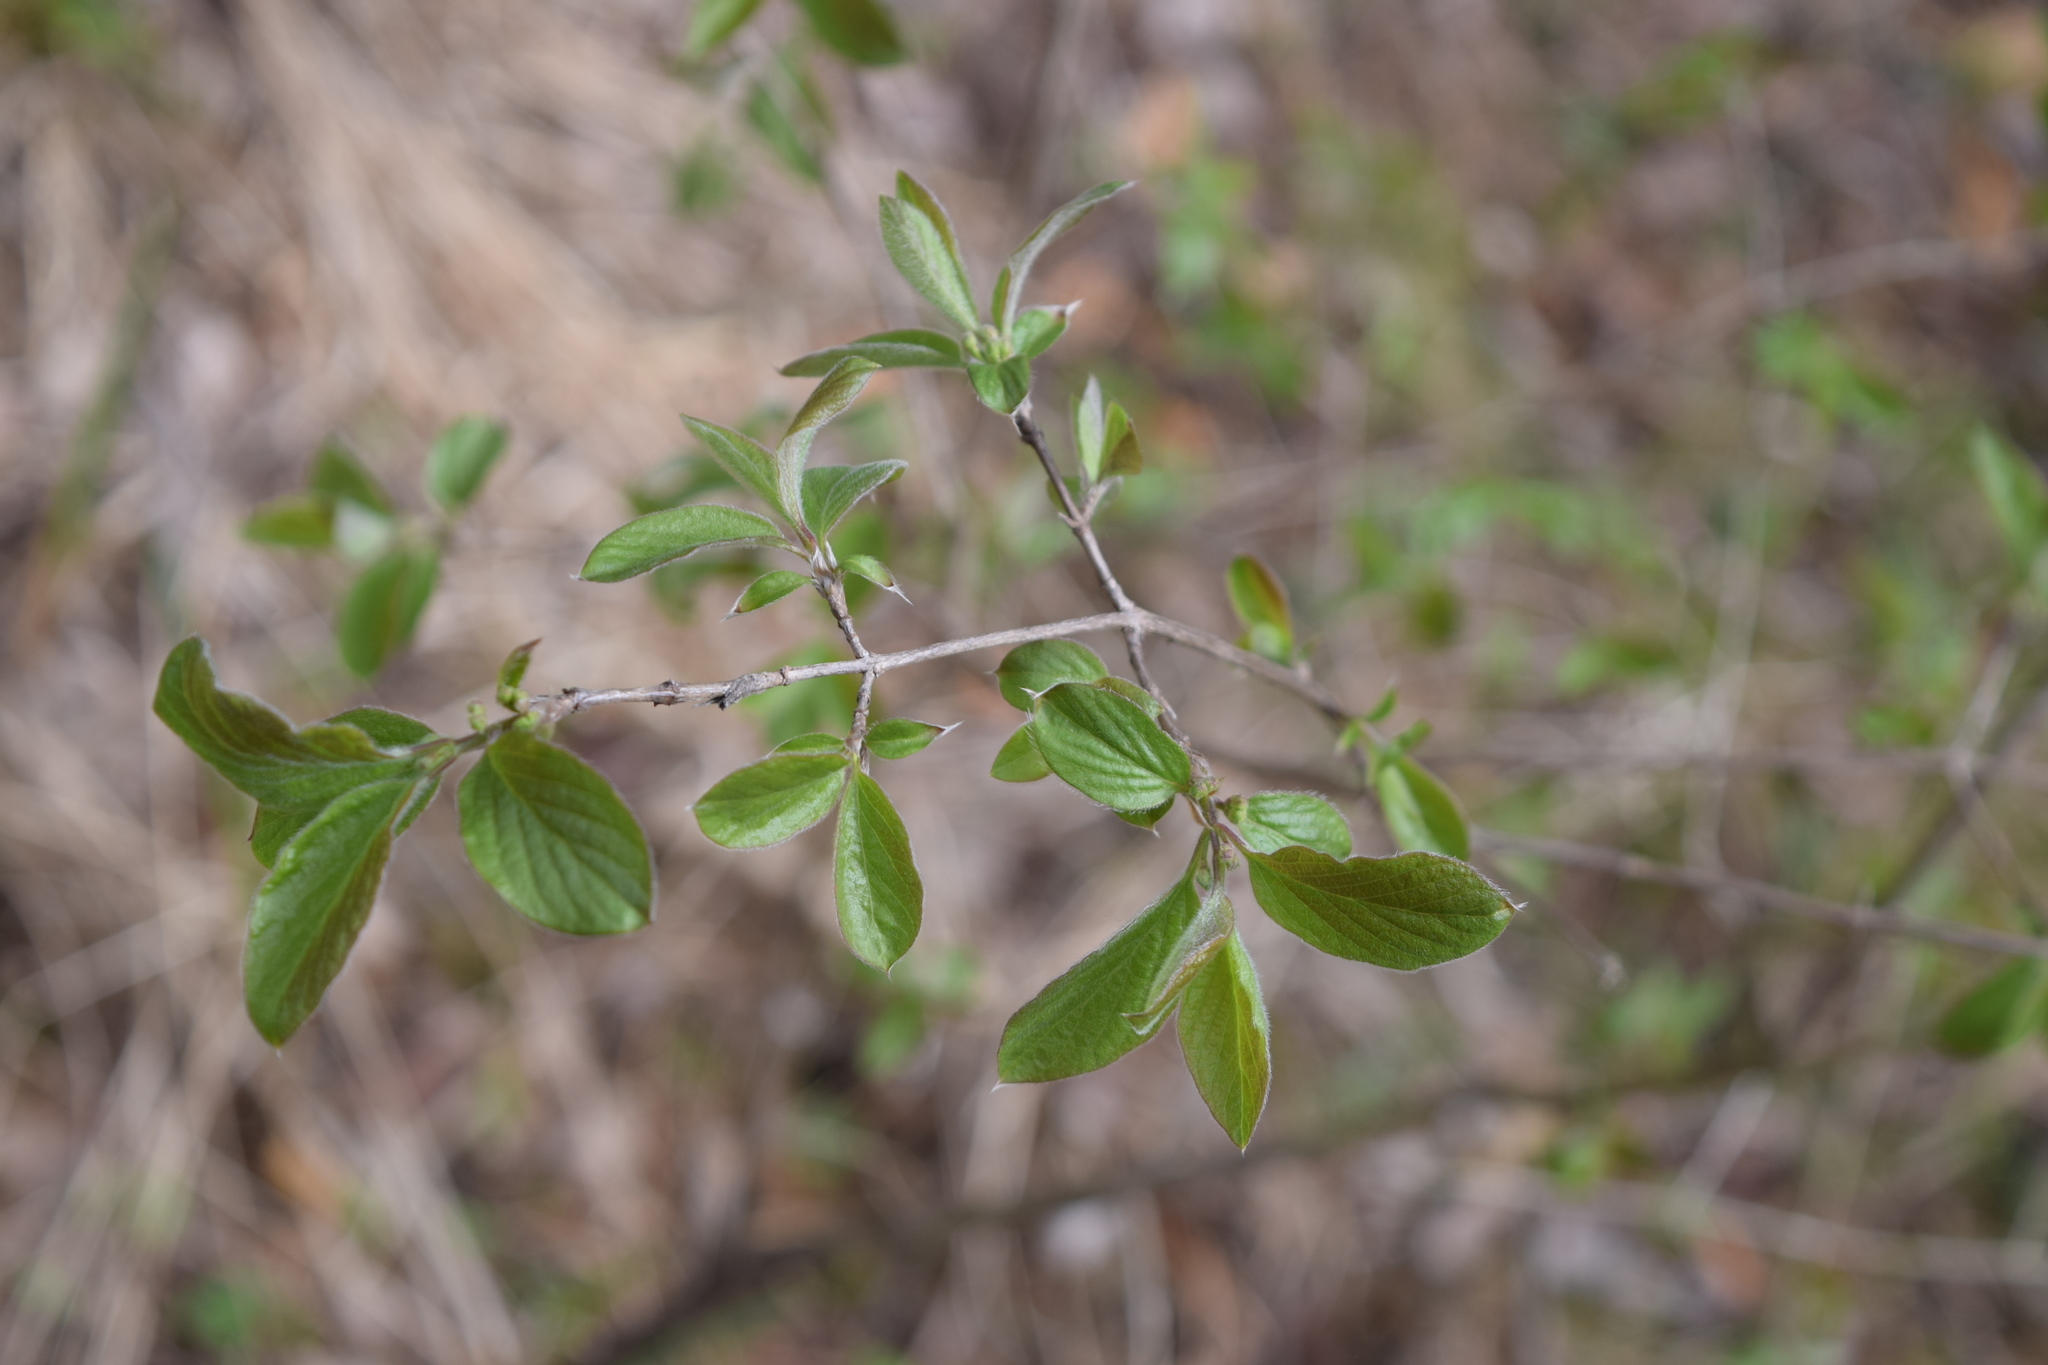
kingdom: Plantae
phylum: Tracheophyta
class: Magnoliopsida
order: Dipsacales
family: Caprifoliaceae
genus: Lonicera
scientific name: Lonicera xylosteum
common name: Fly honeysuckle
